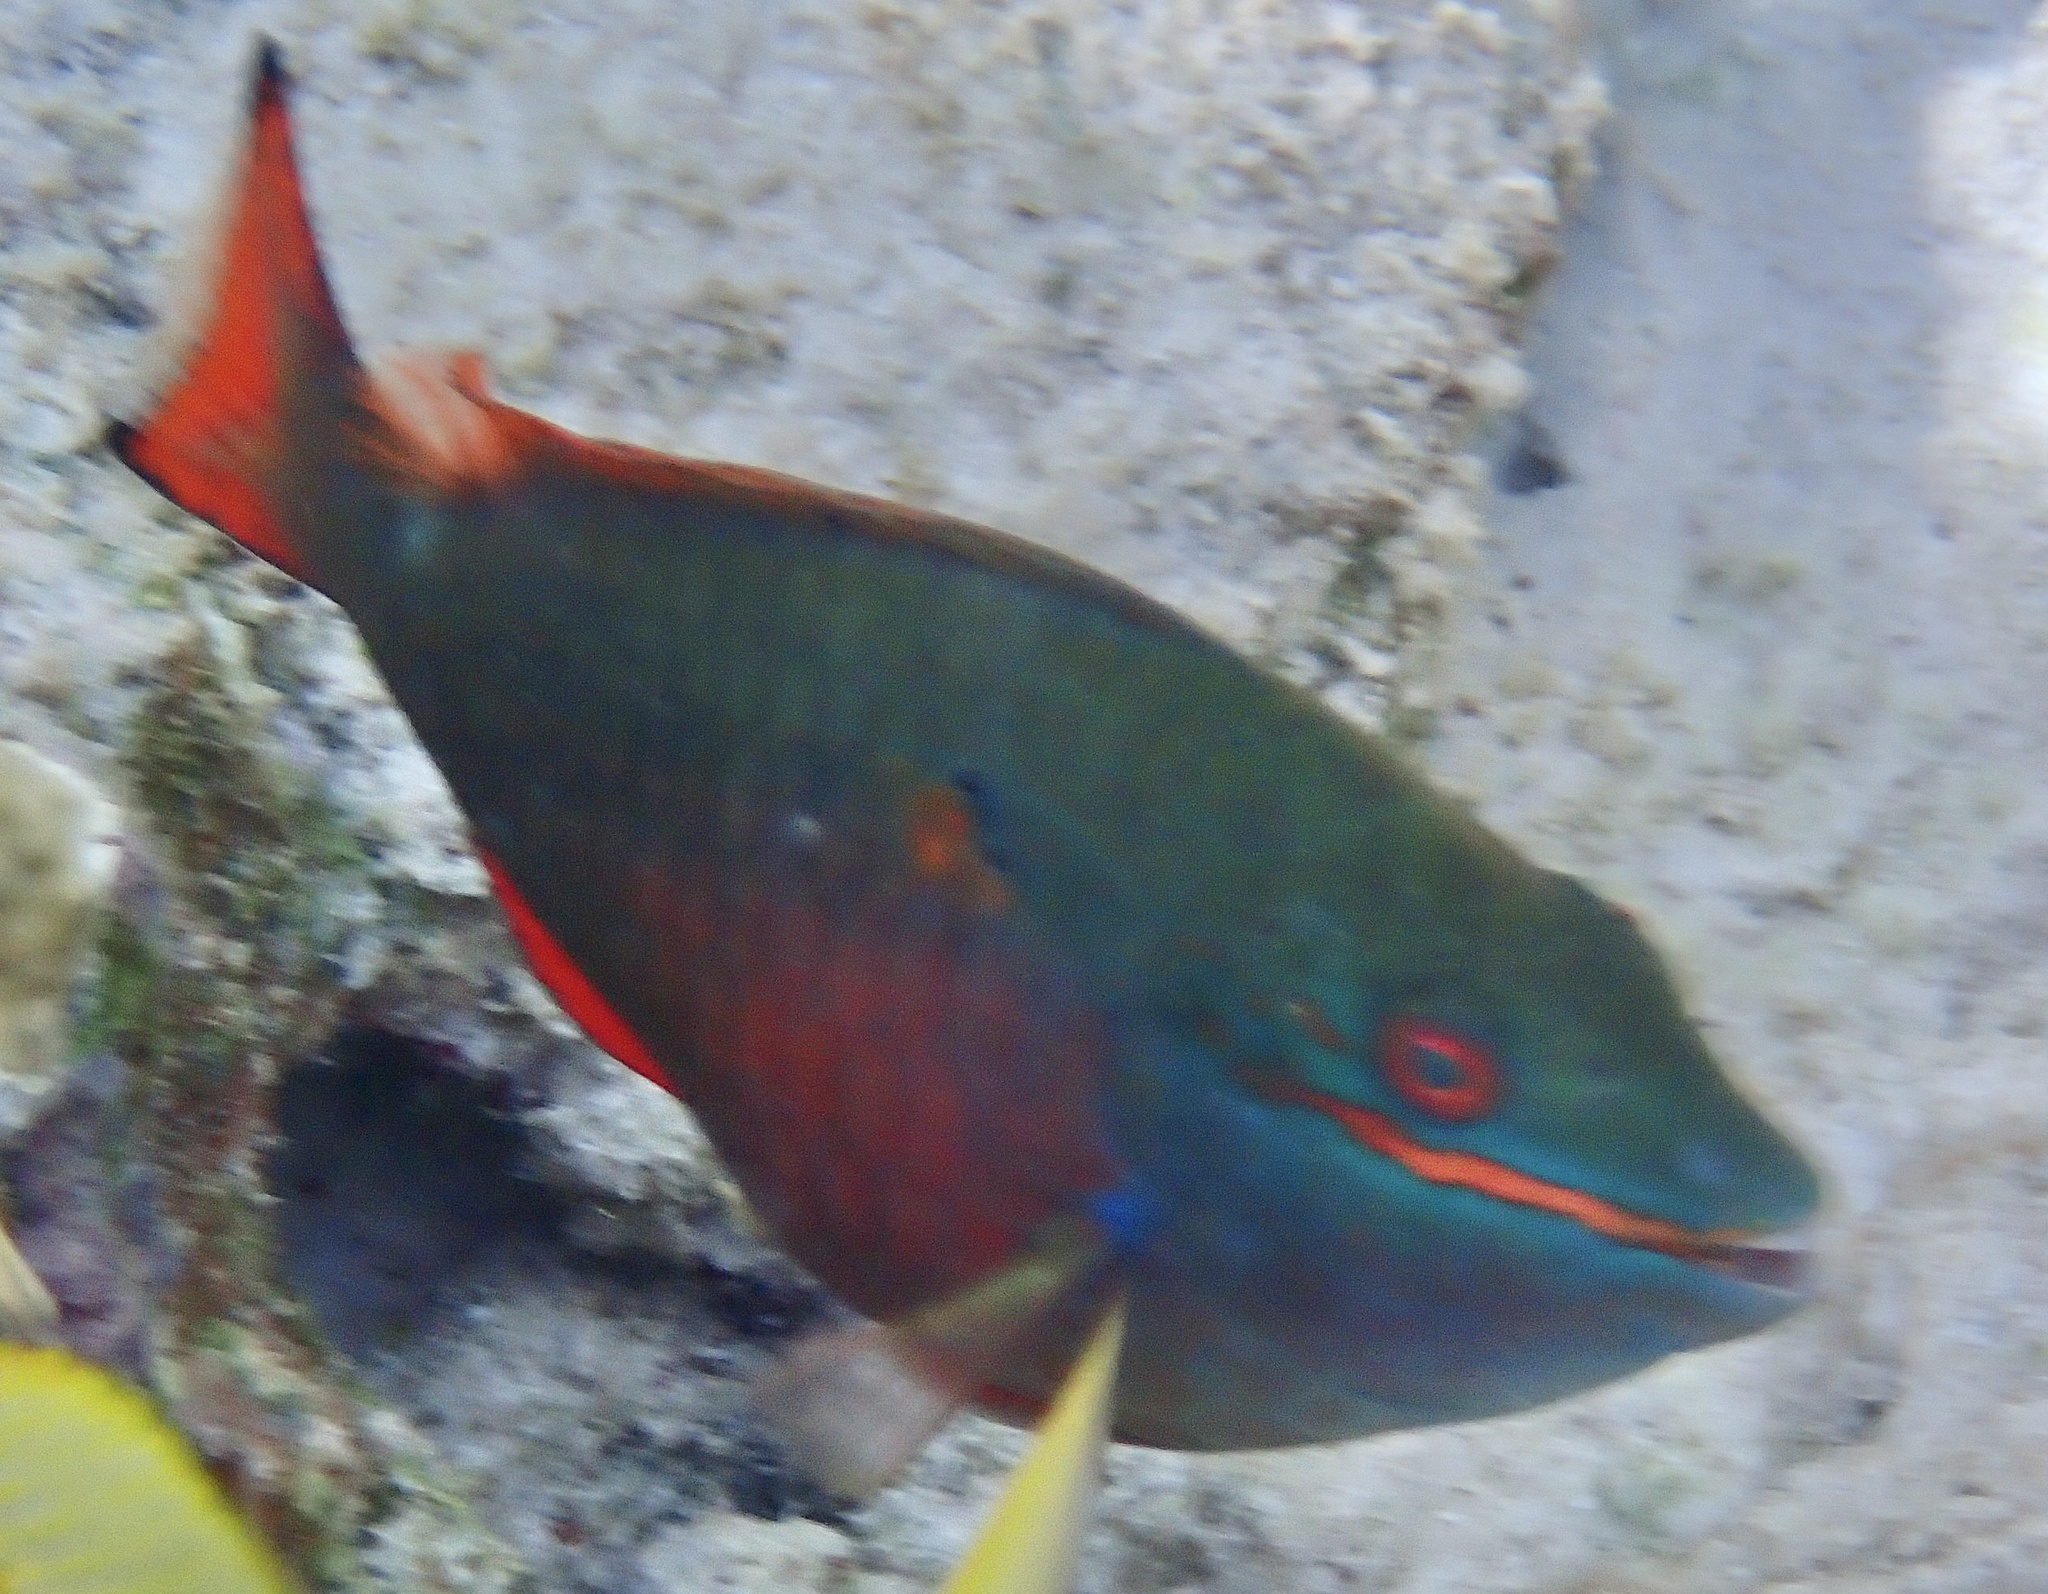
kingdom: Animalia
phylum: Chordata
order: Perciformes
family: Scaridae
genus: Sparisoma
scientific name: Sparisoma aurofrenatum
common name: Redband parrotfish
